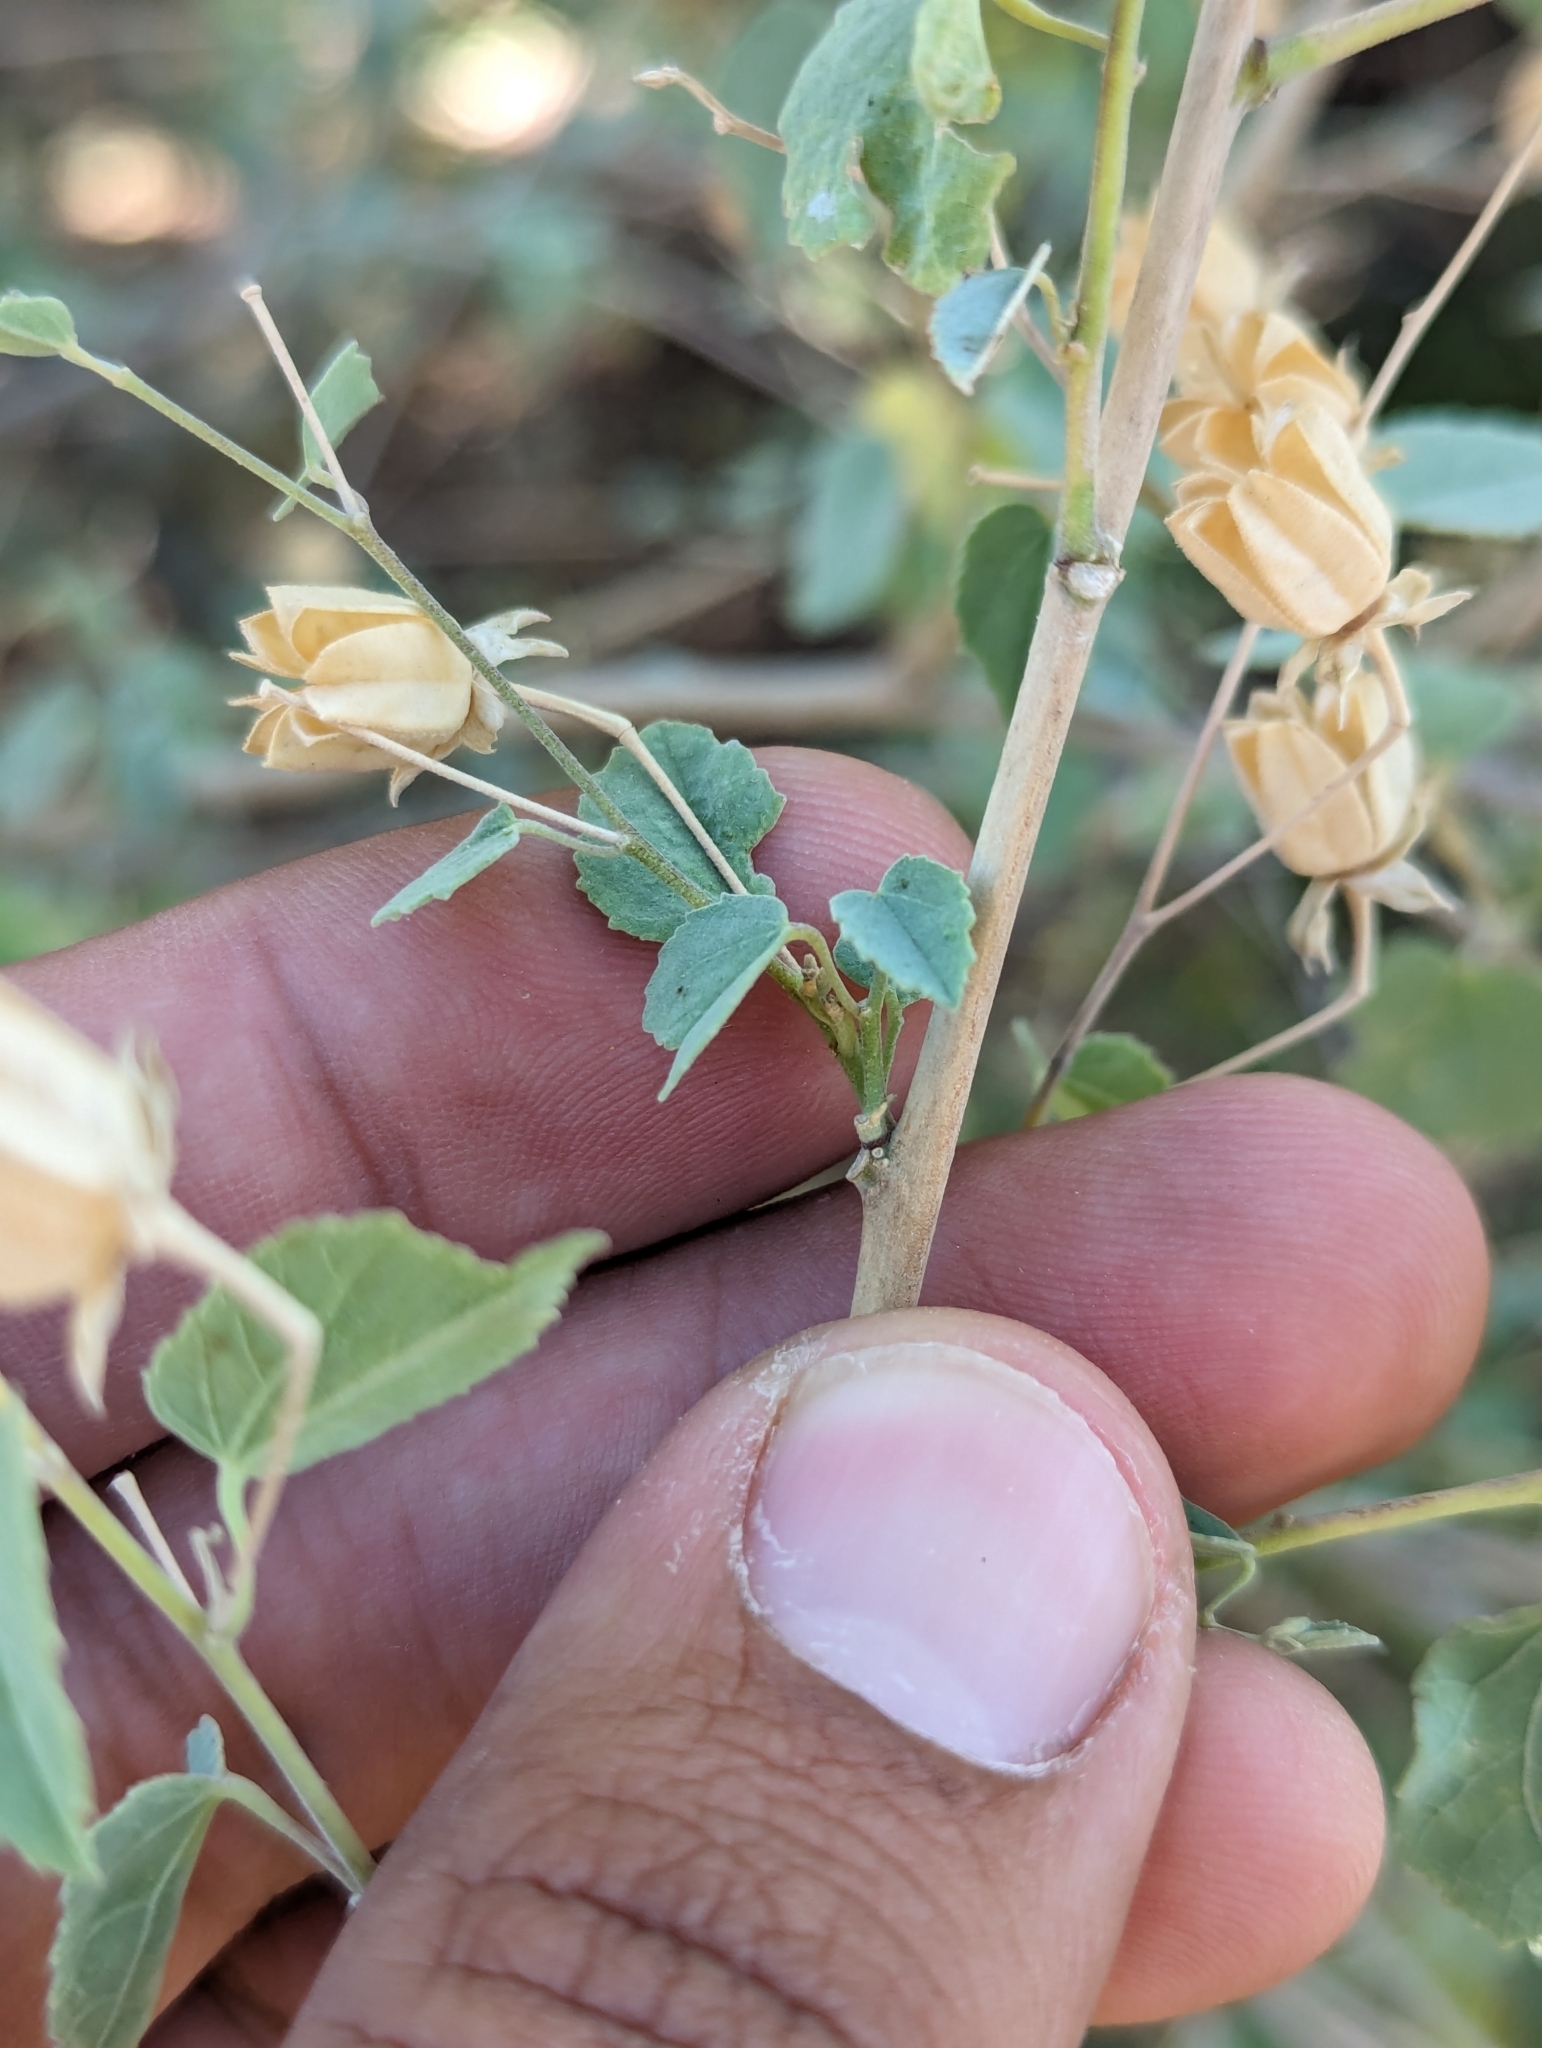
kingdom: Plantae
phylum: Tracheophyta
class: Magnoliopsida
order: Malvales
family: Malvaceae
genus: Abutilon
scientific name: Abutilon incanum
